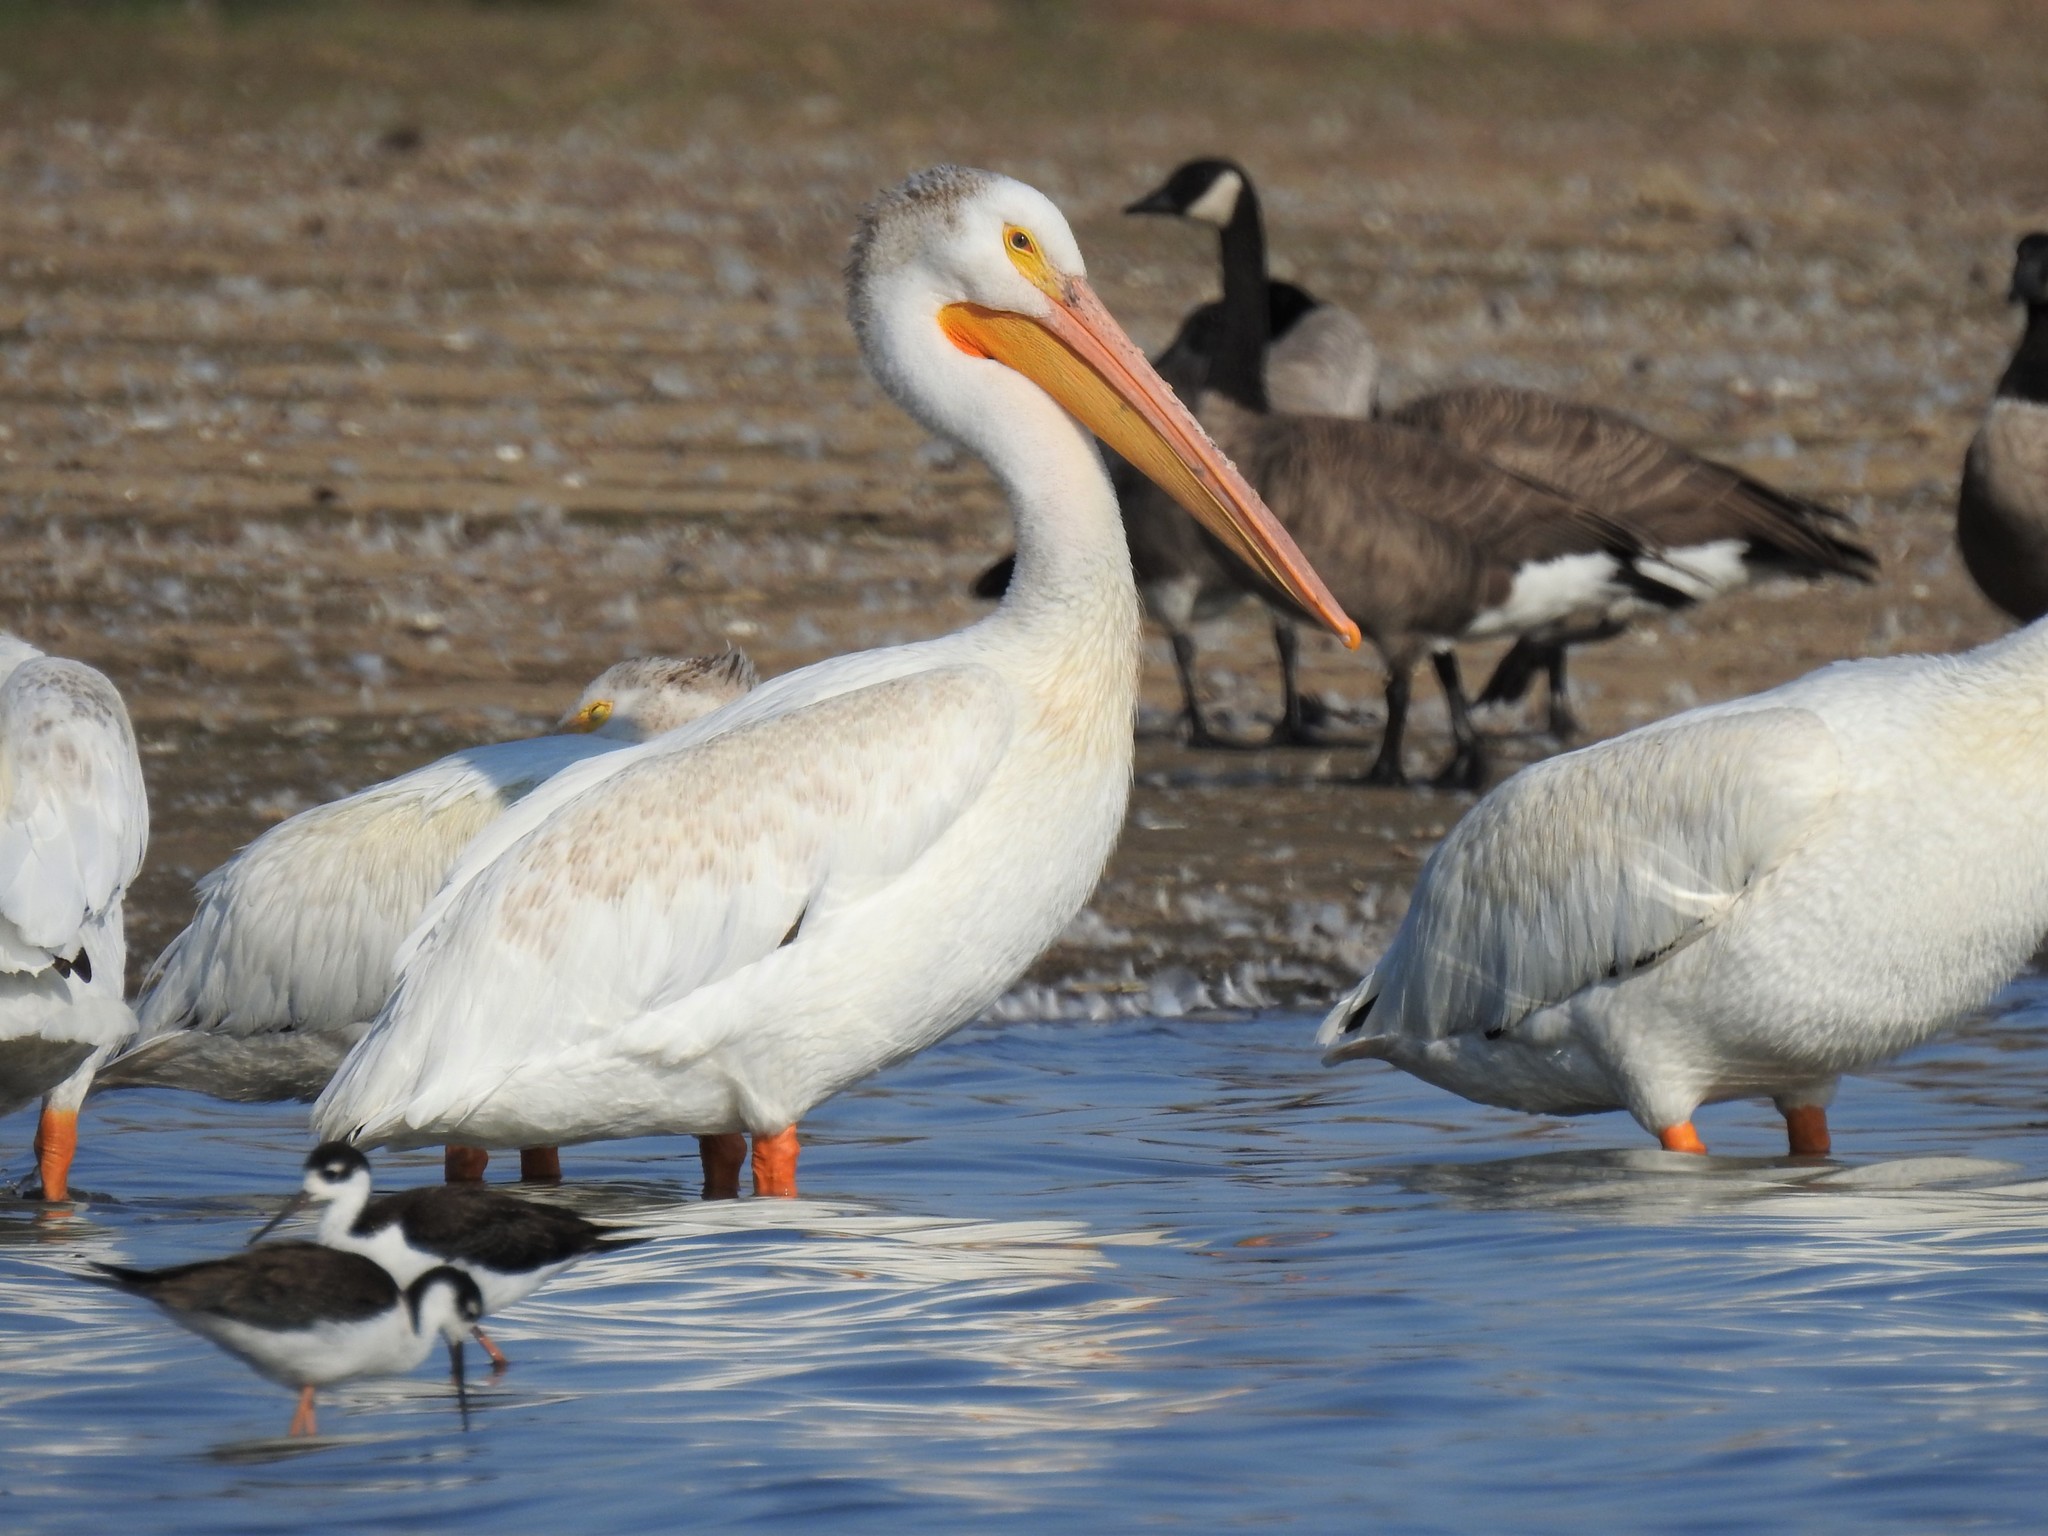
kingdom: Animalia
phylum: Chordata
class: Aves
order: Pelecaniformes
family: Pelecanidae
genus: Pelecanus
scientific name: Pelecanus erythrorhynchos
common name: American white pelican
